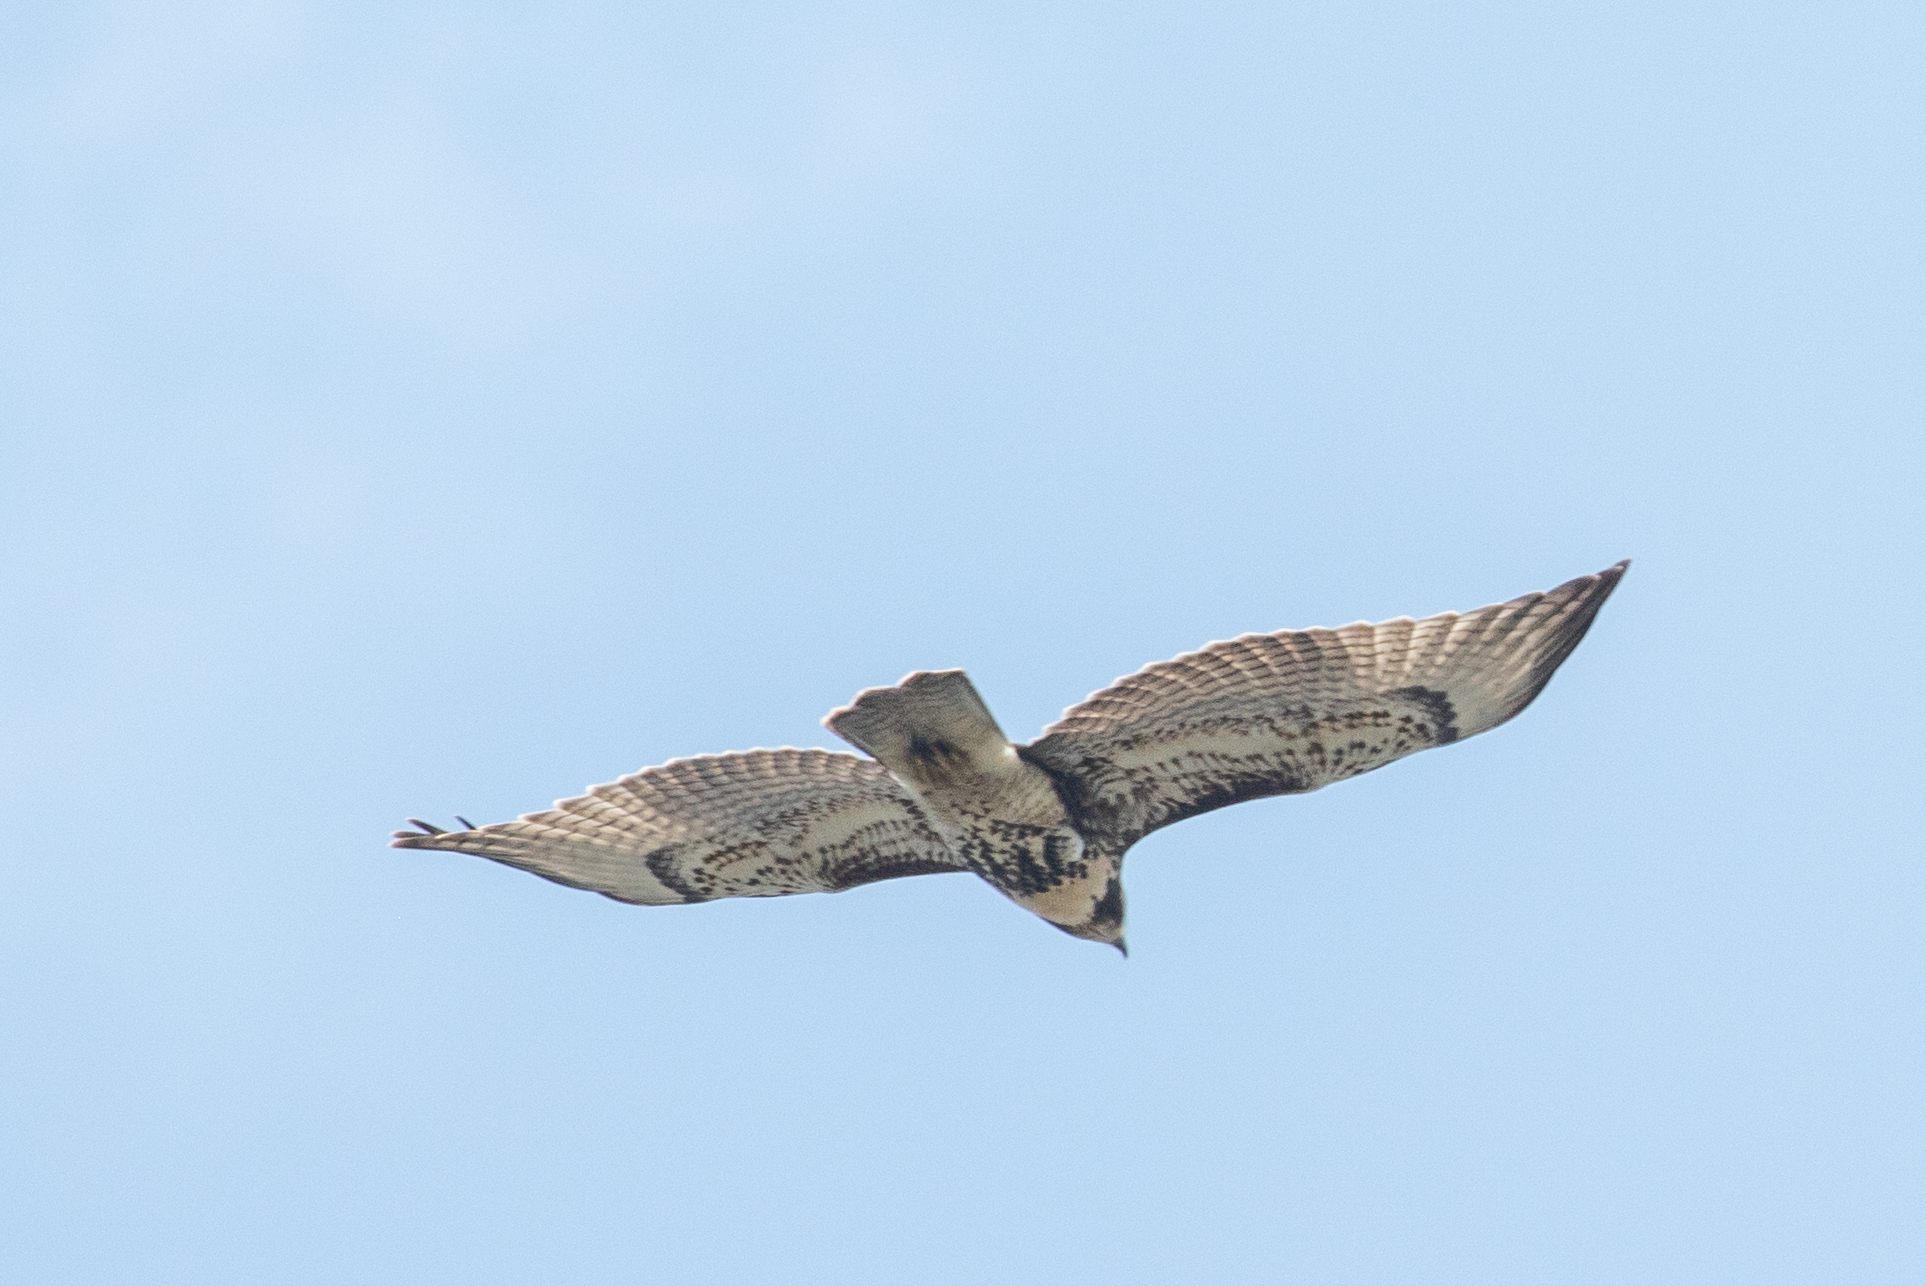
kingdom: Animalia
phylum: Chordata
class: Aves
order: Accipitriformes
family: Accipitridae
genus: Buteo
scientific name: Buteo jamaicensis
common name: Red-tailed hawk
